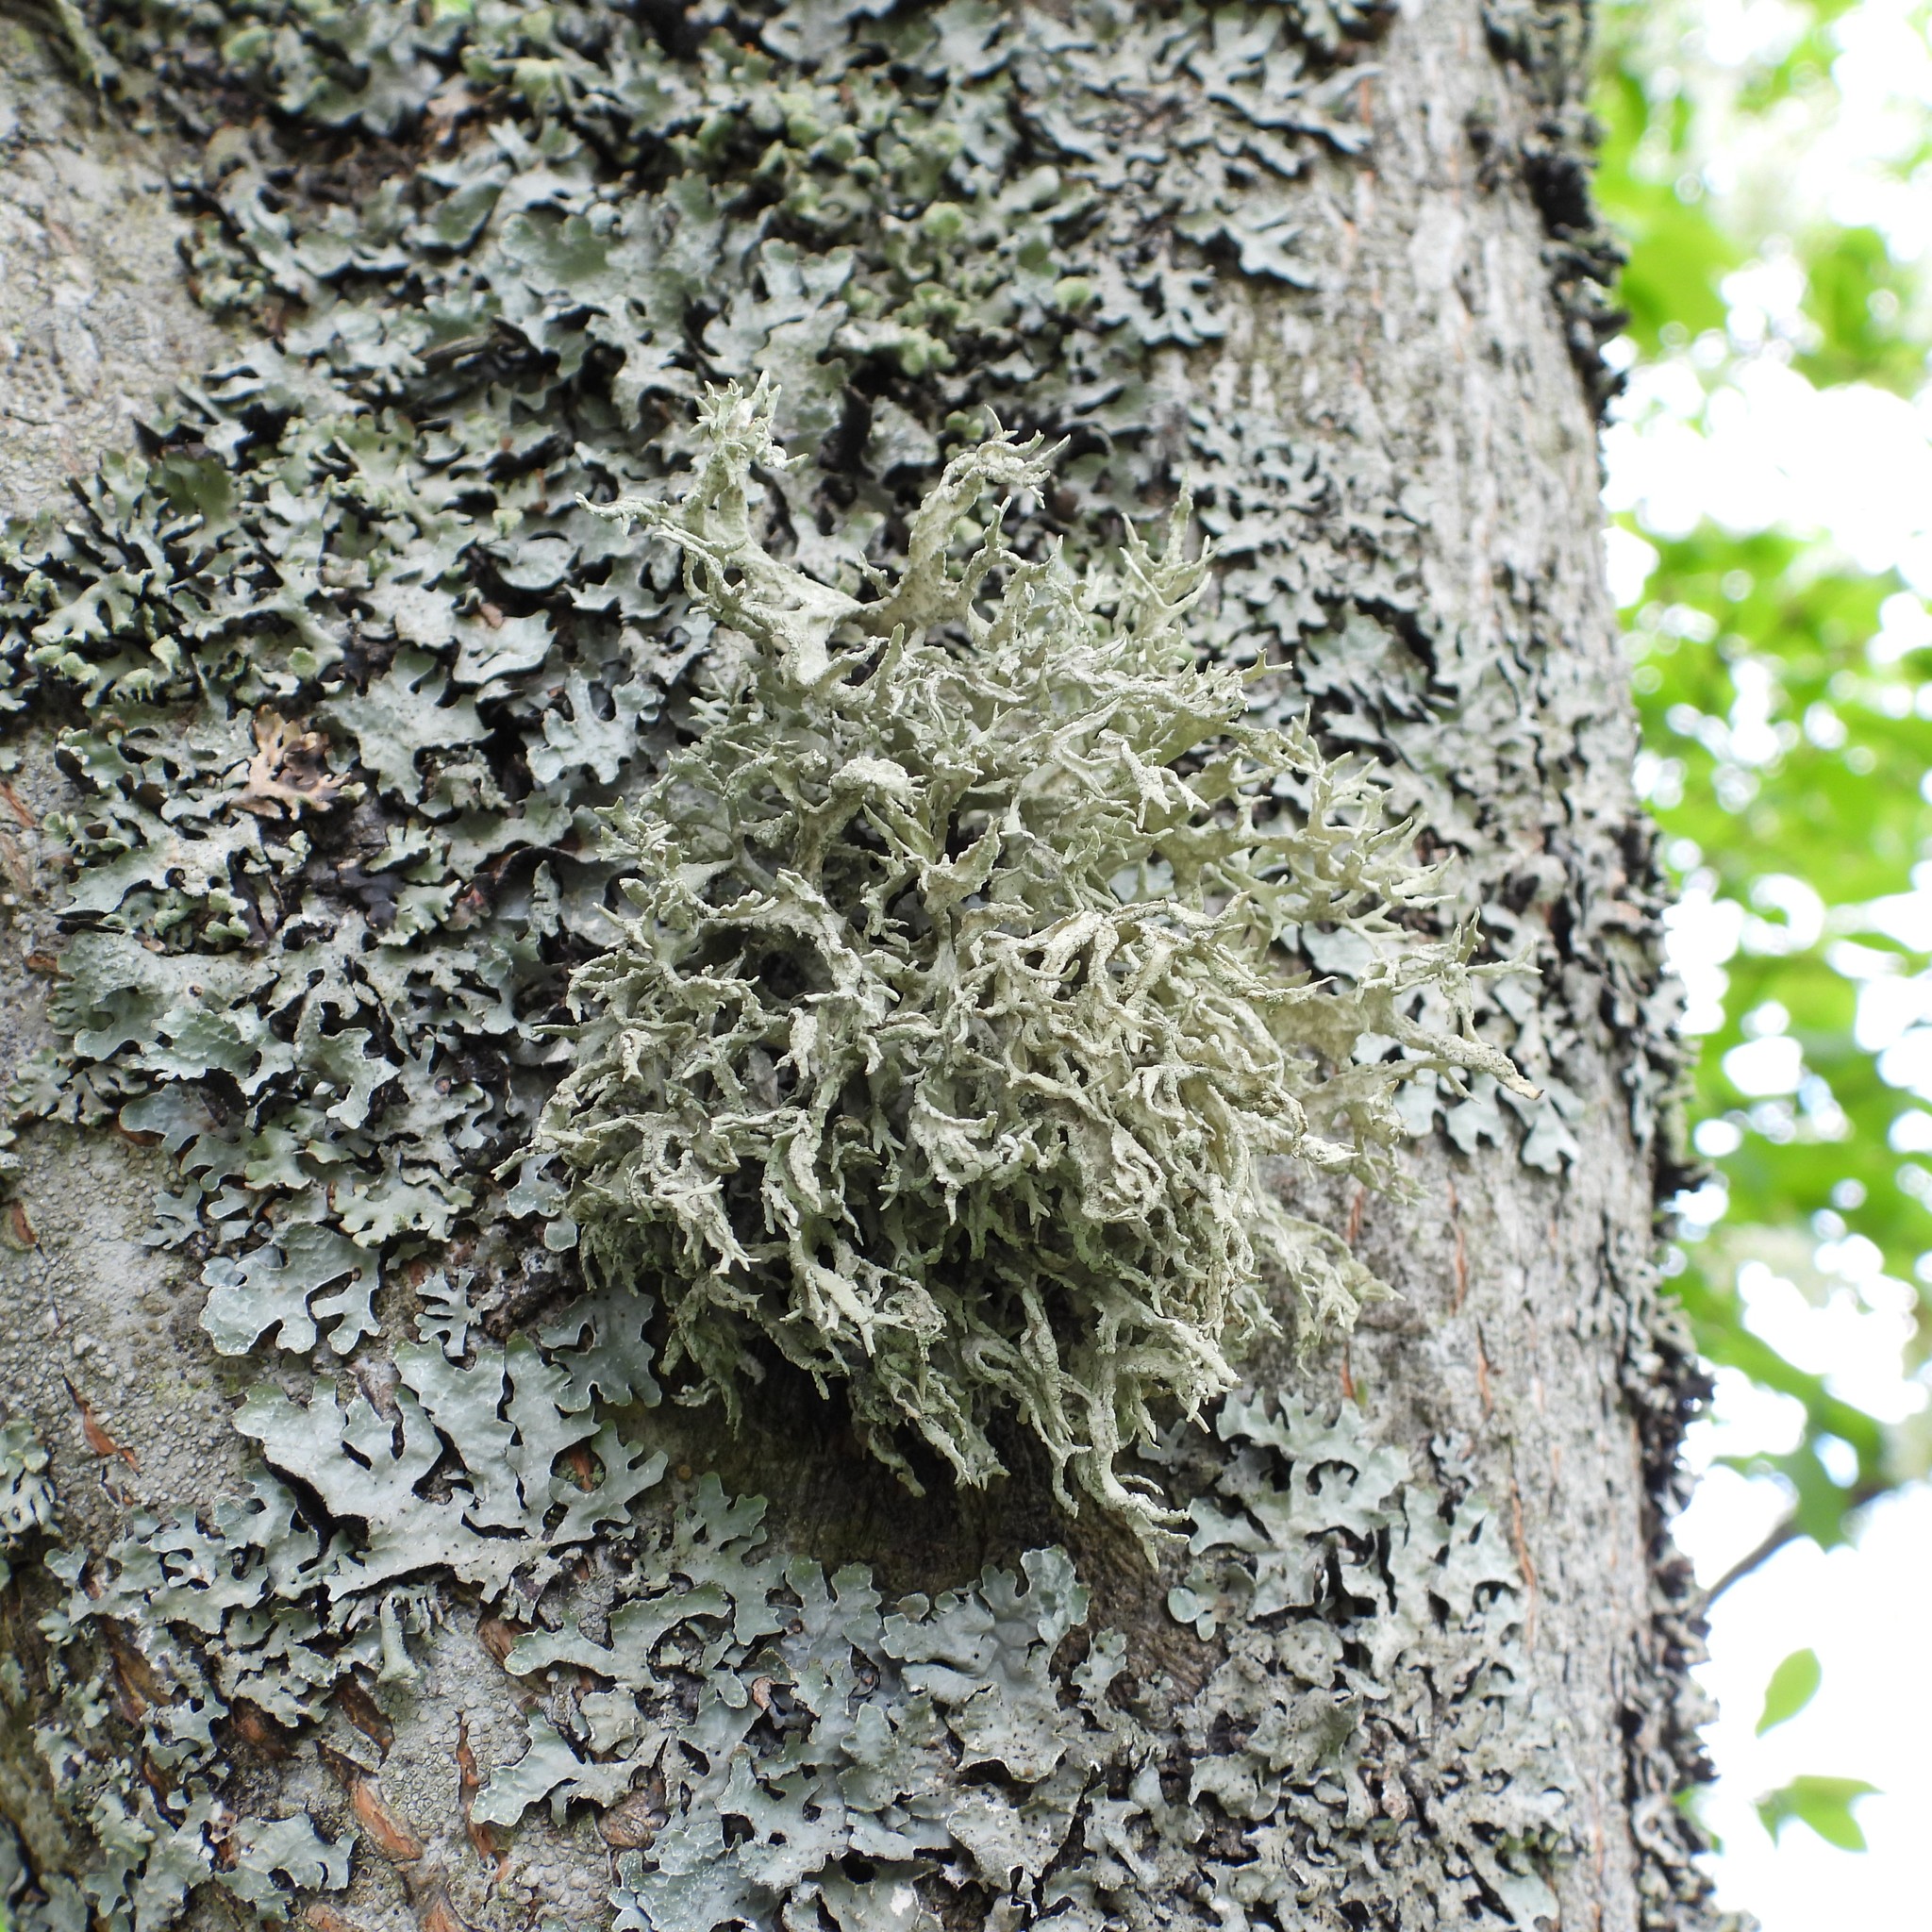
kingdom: Fungi
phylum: Ascomycota
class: Lecanoromycetes
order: Lecanorales
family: Parmeliaceae
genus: Evernia
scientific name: Evernia prunastri
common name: Oak moss
